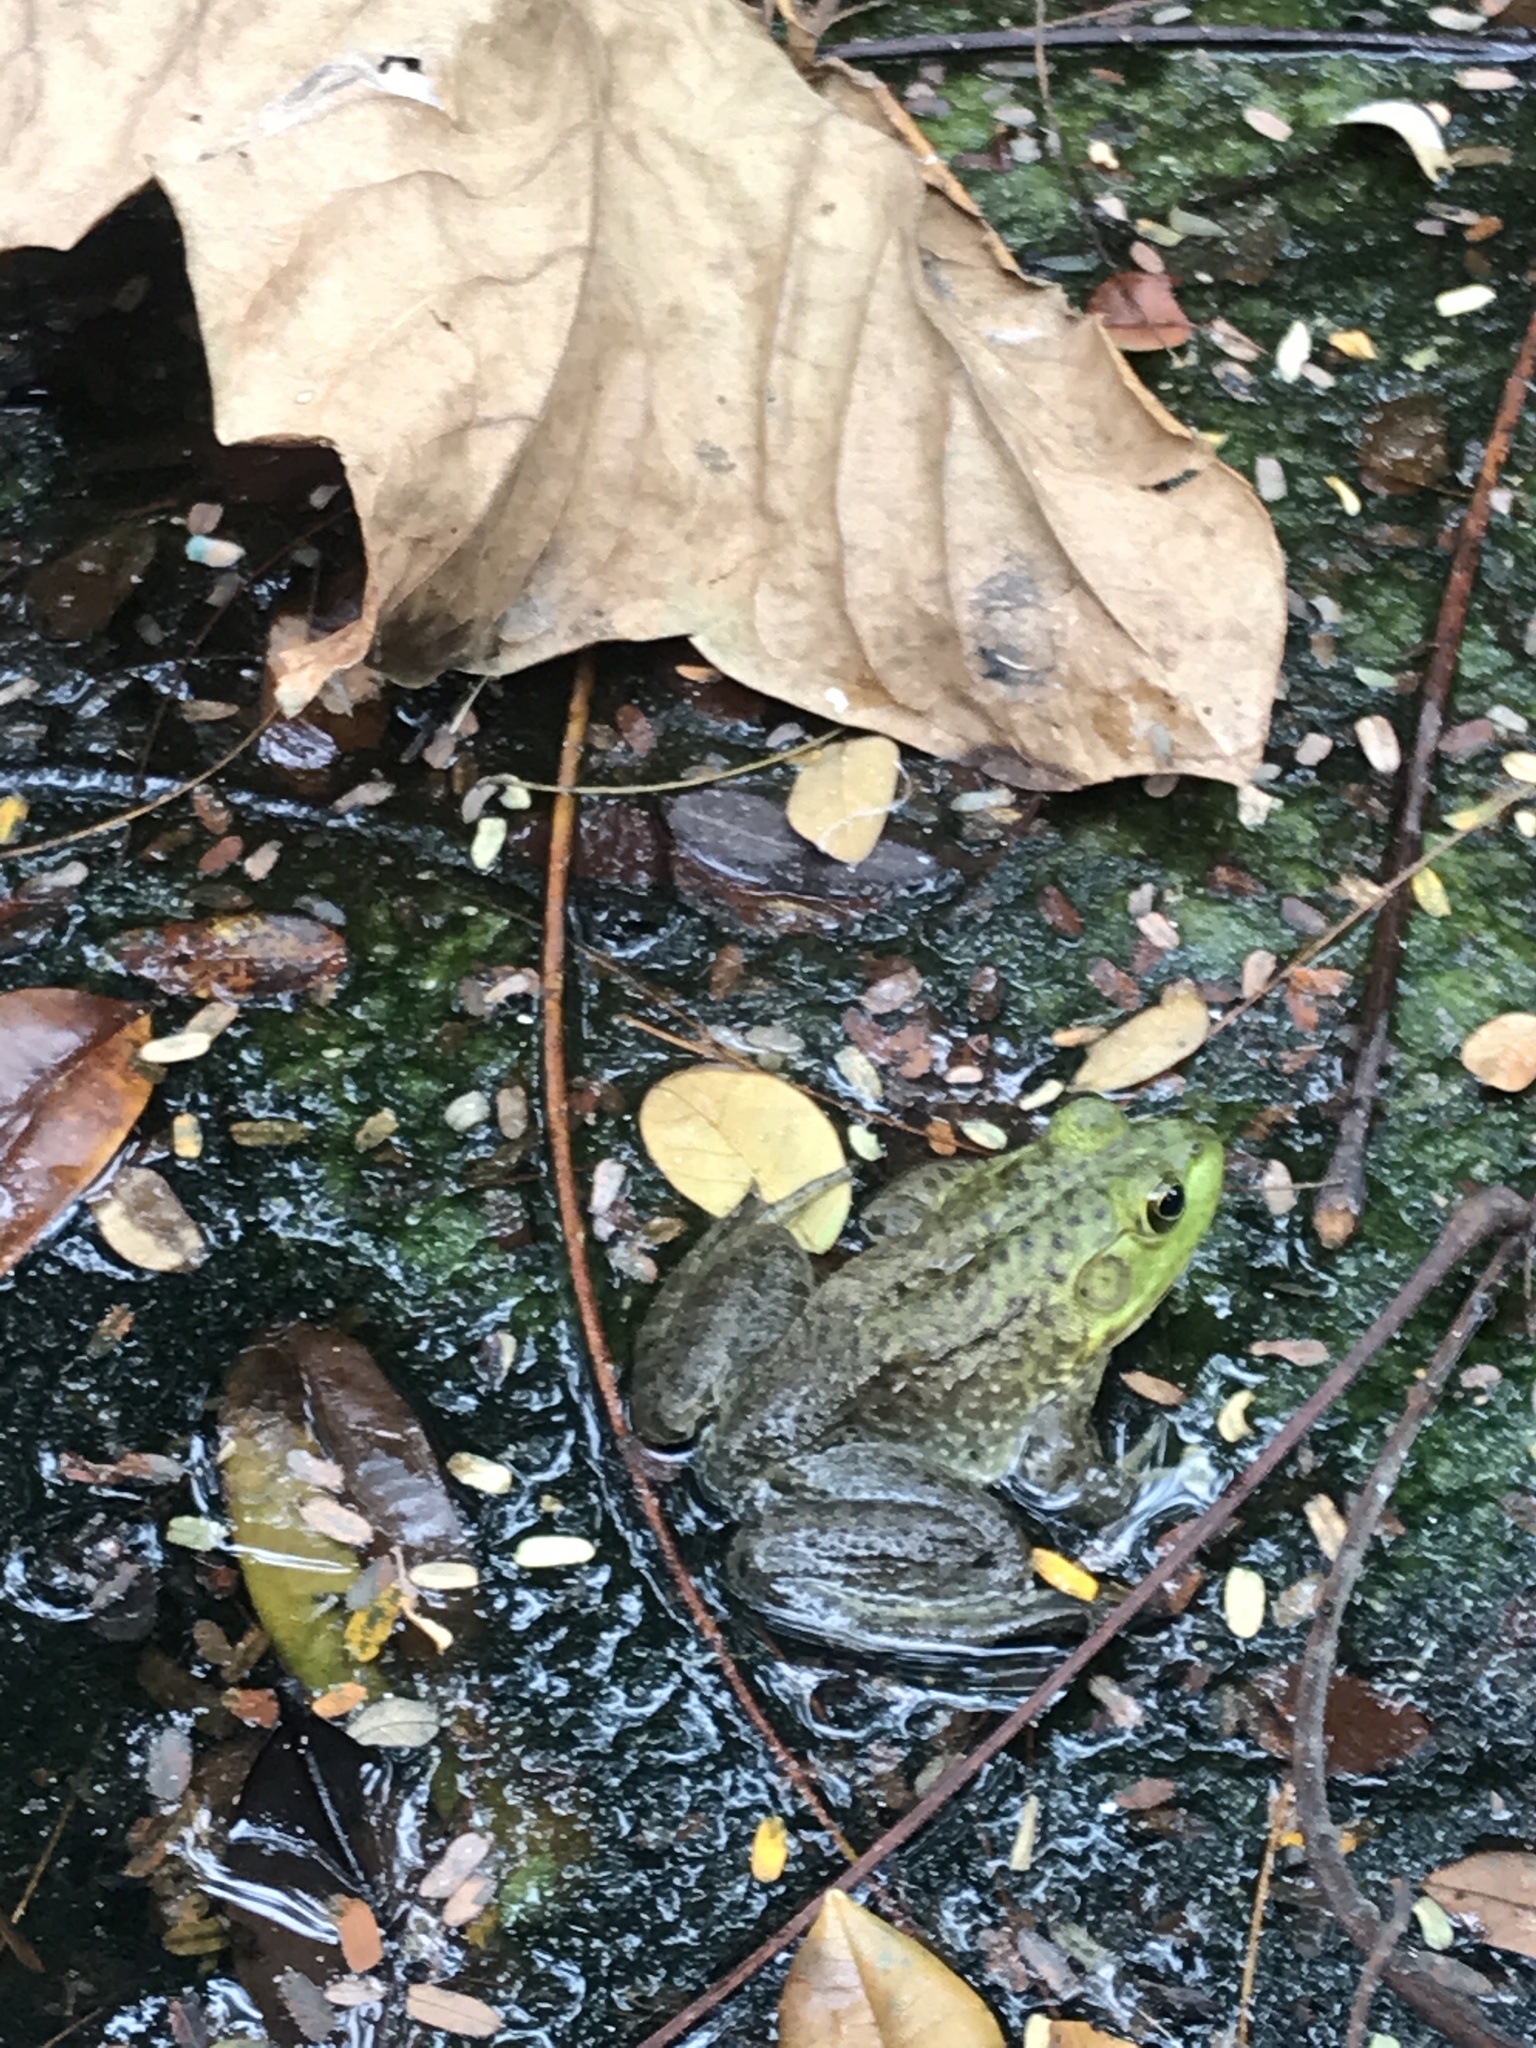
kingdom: Animalia
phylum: Chordata
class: Amphibia
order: Anura
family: Ranidae
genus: Lithobates
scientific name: Lithobates catesbeianus
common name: American bullfrog
